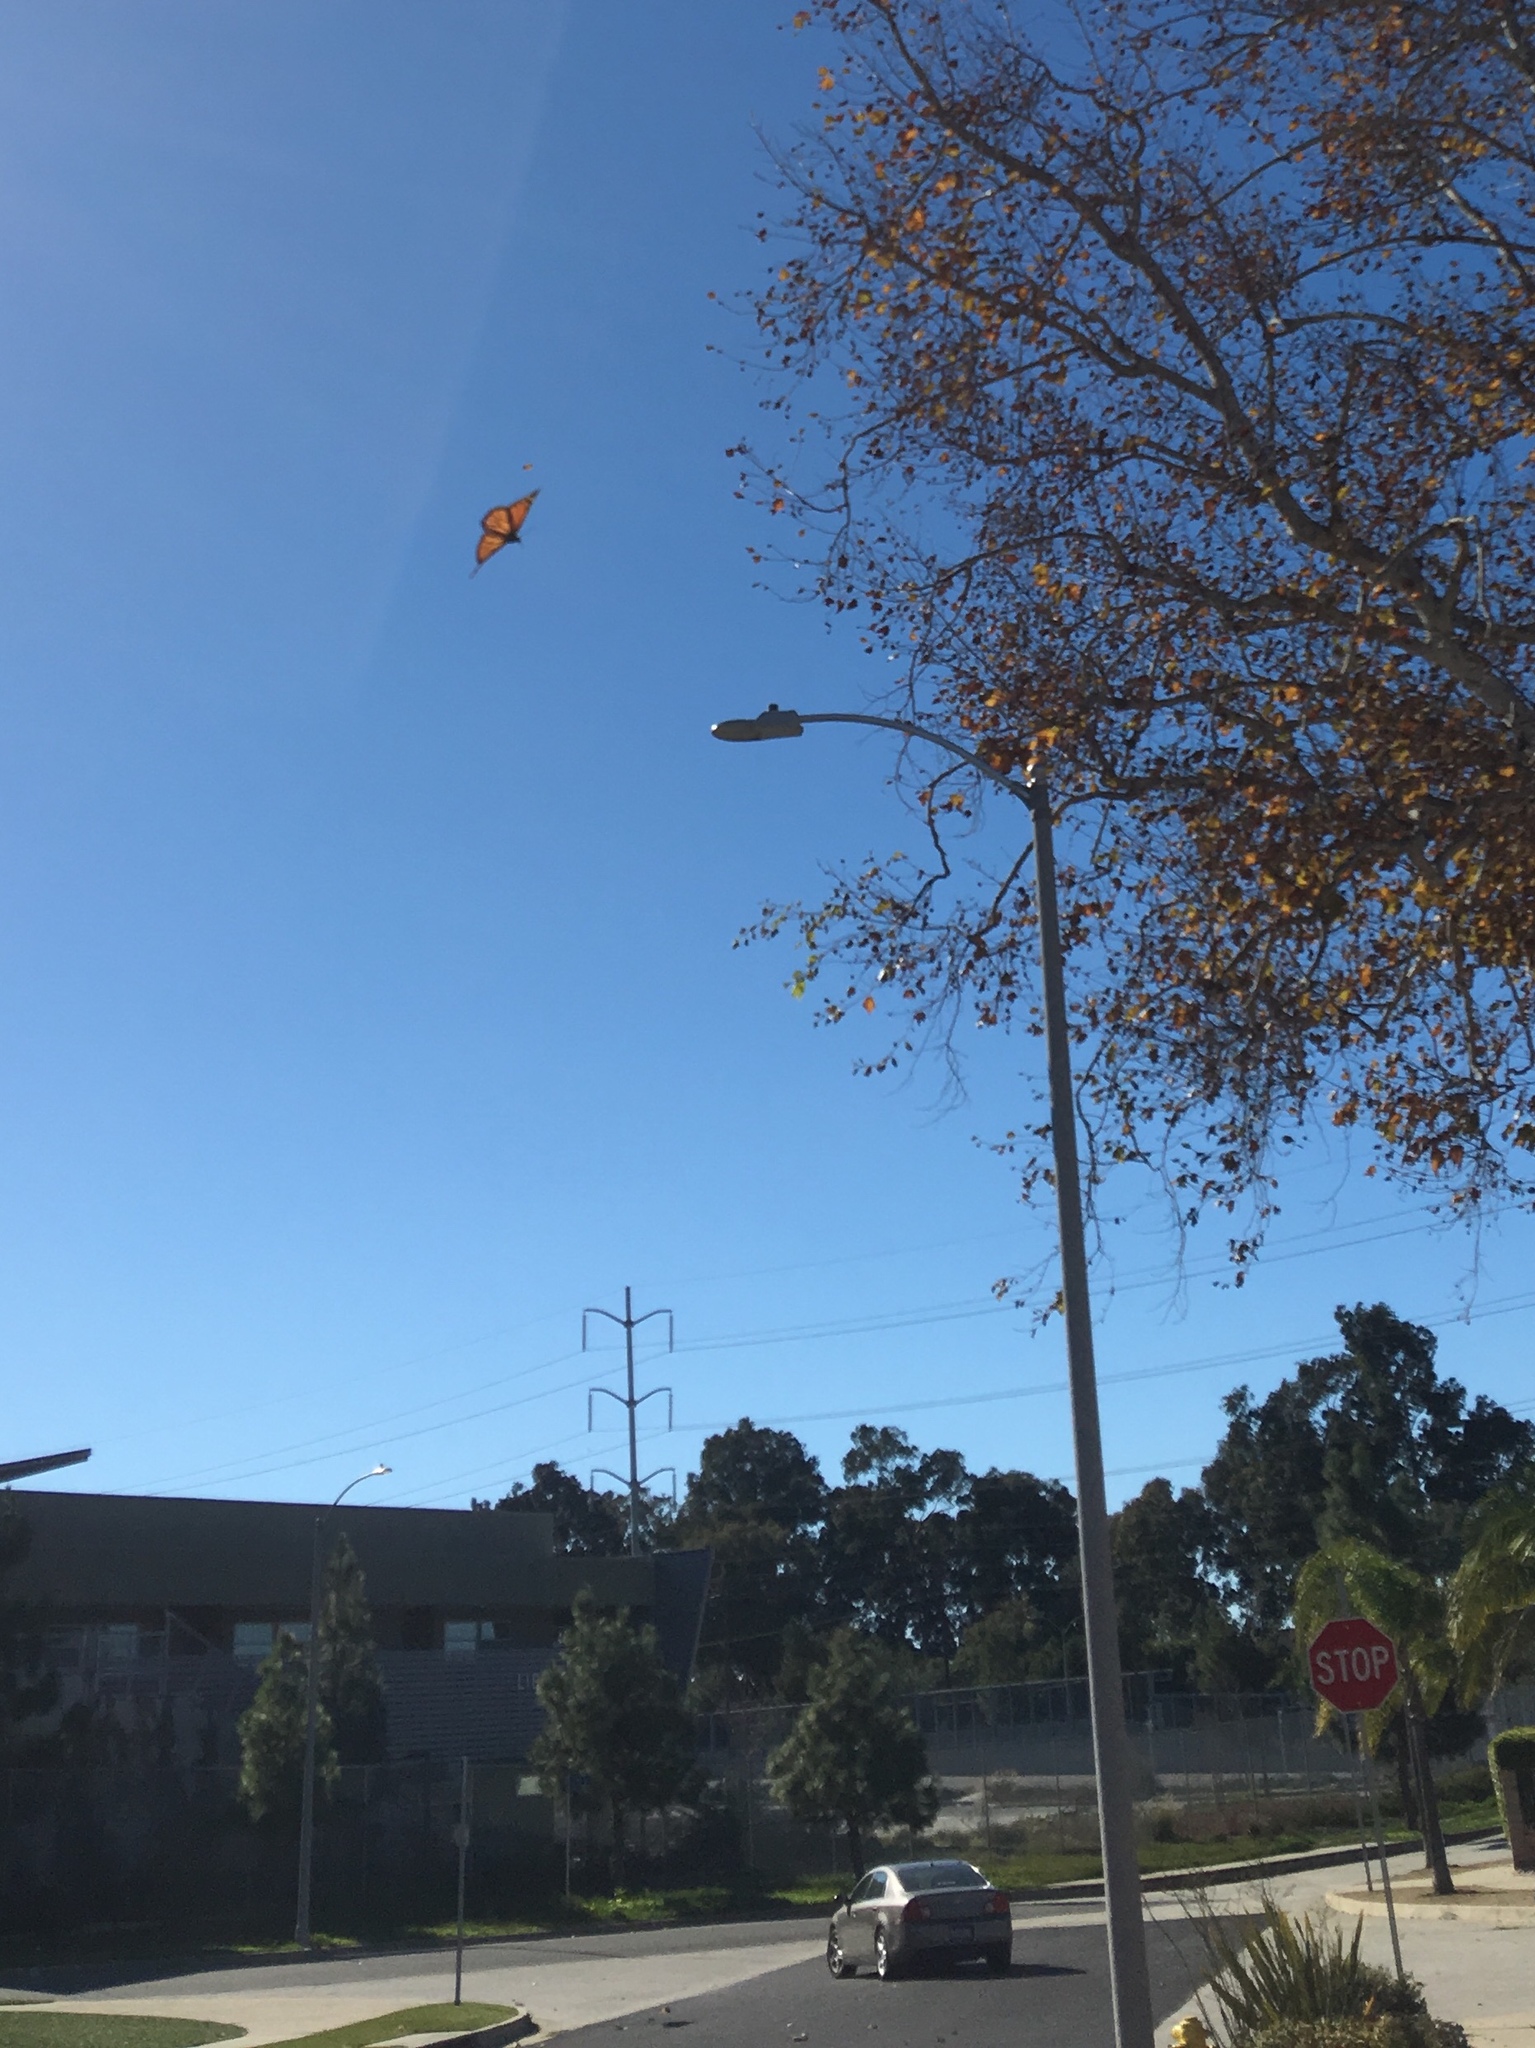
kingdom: Animalia
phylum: Arthropoda
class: Insecta
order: Lepidoptera
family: Nymphalidae
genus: Danaus
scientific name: Danaus plexippus
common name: Monarch
